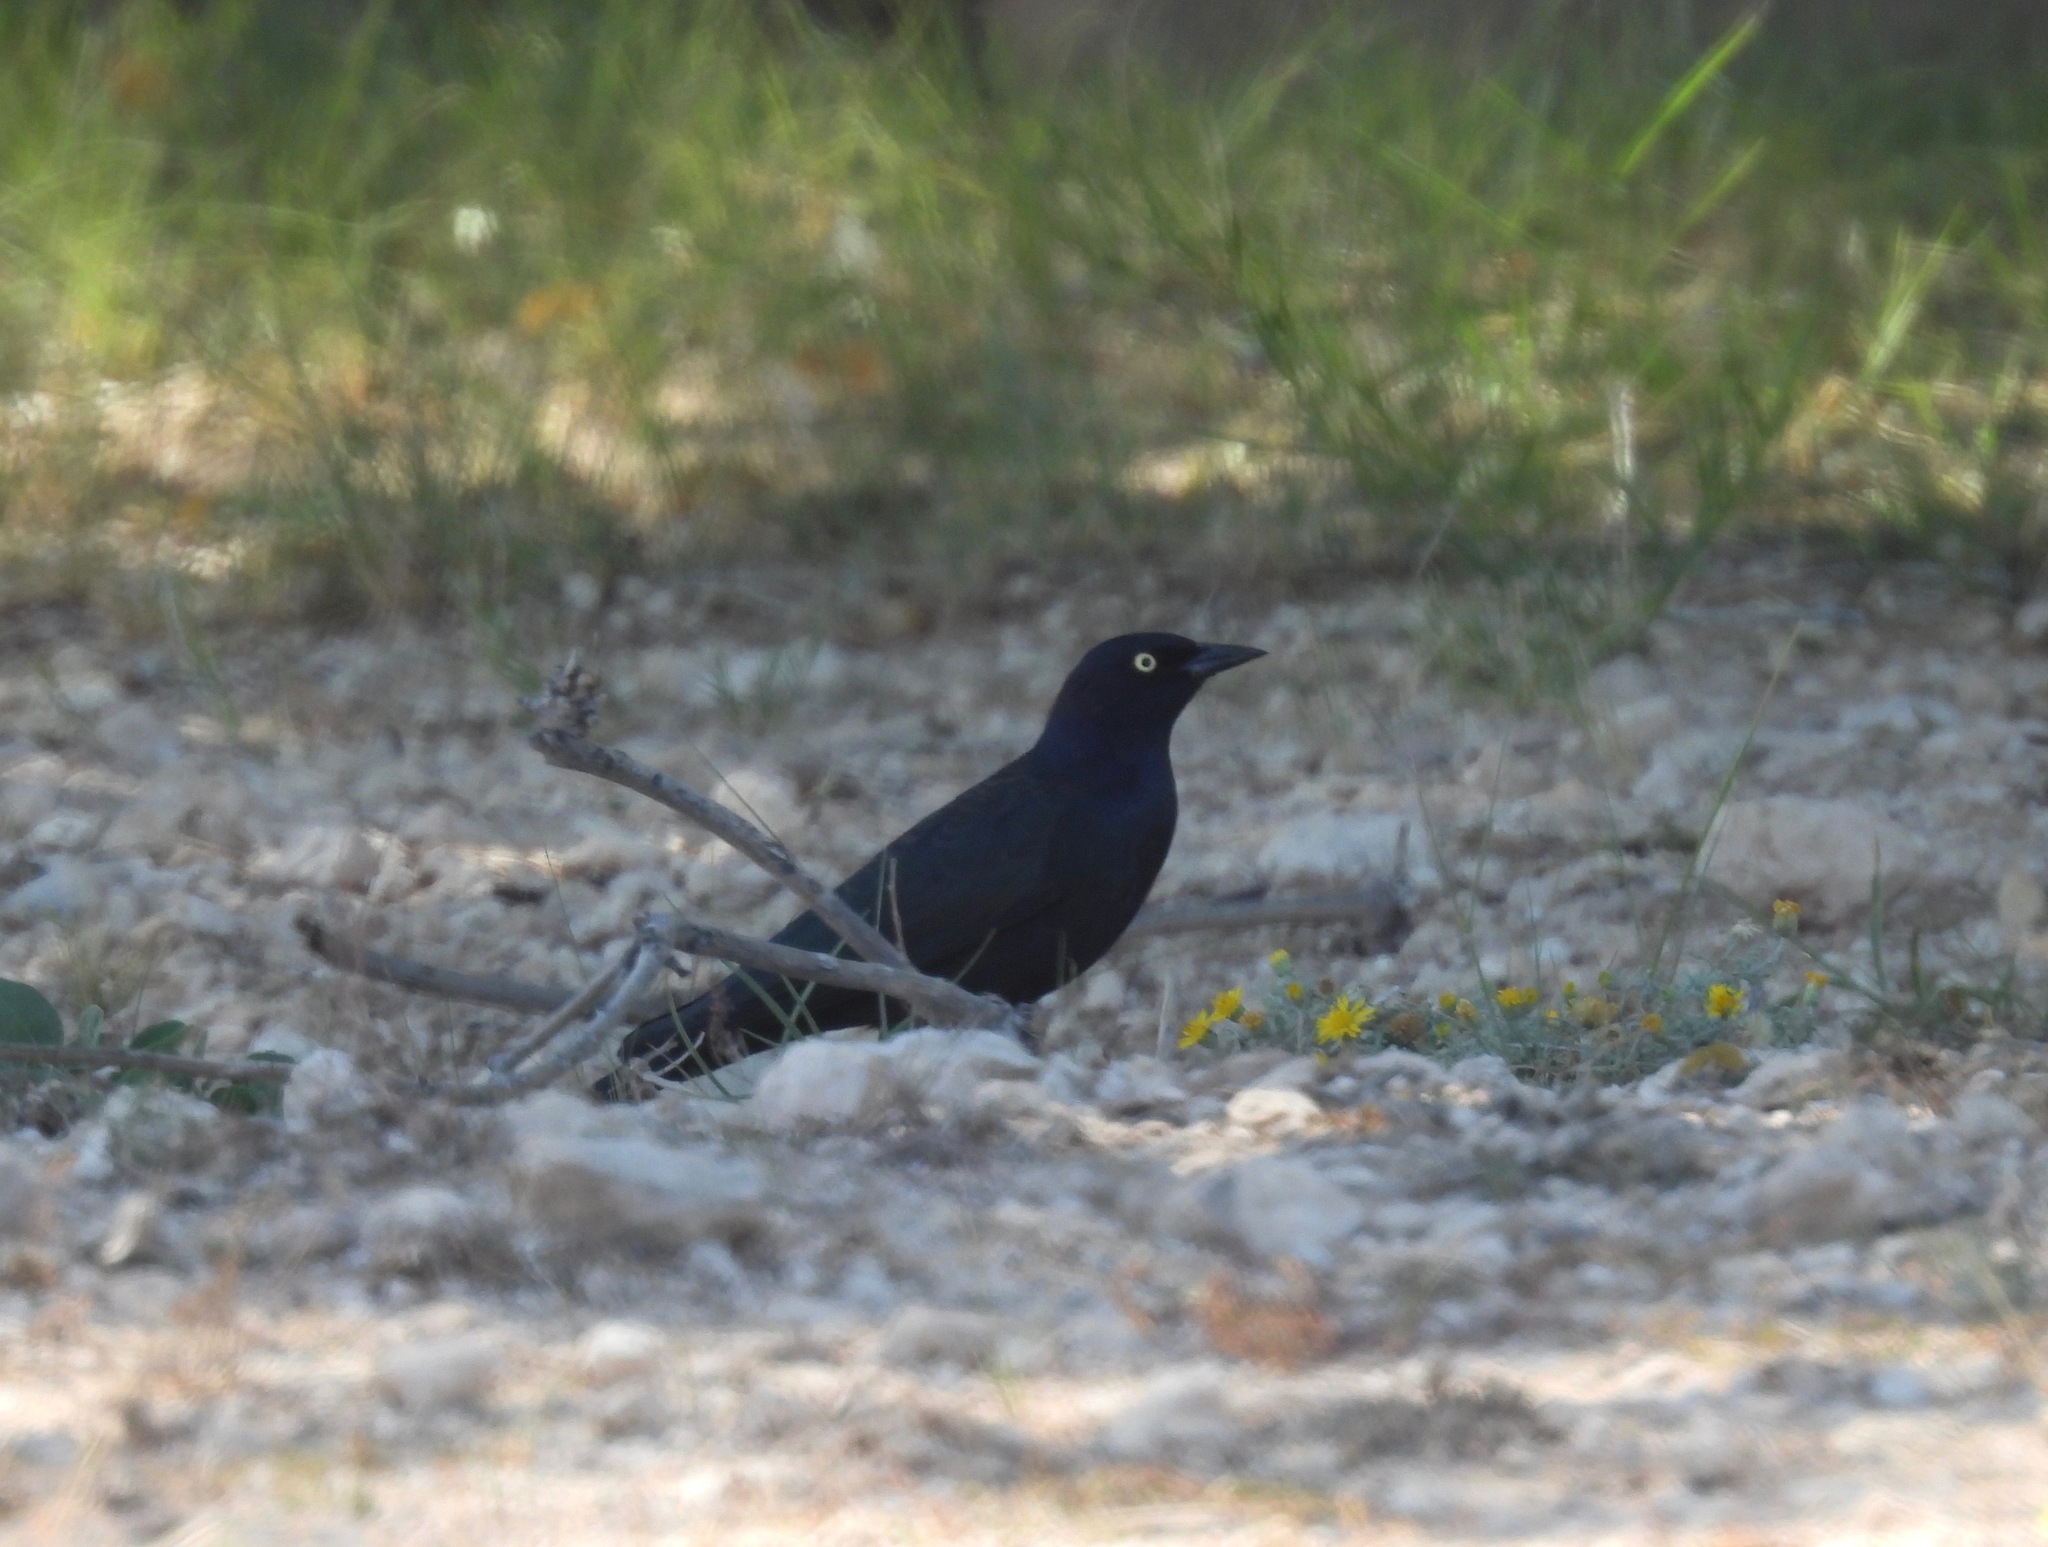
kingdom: Animalia
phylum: Chordata
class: Aves
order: Passeriformes
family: Icteridae
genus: Euphagus
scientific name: Euphagus cyanocephalus
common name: Brewer's blackbird
